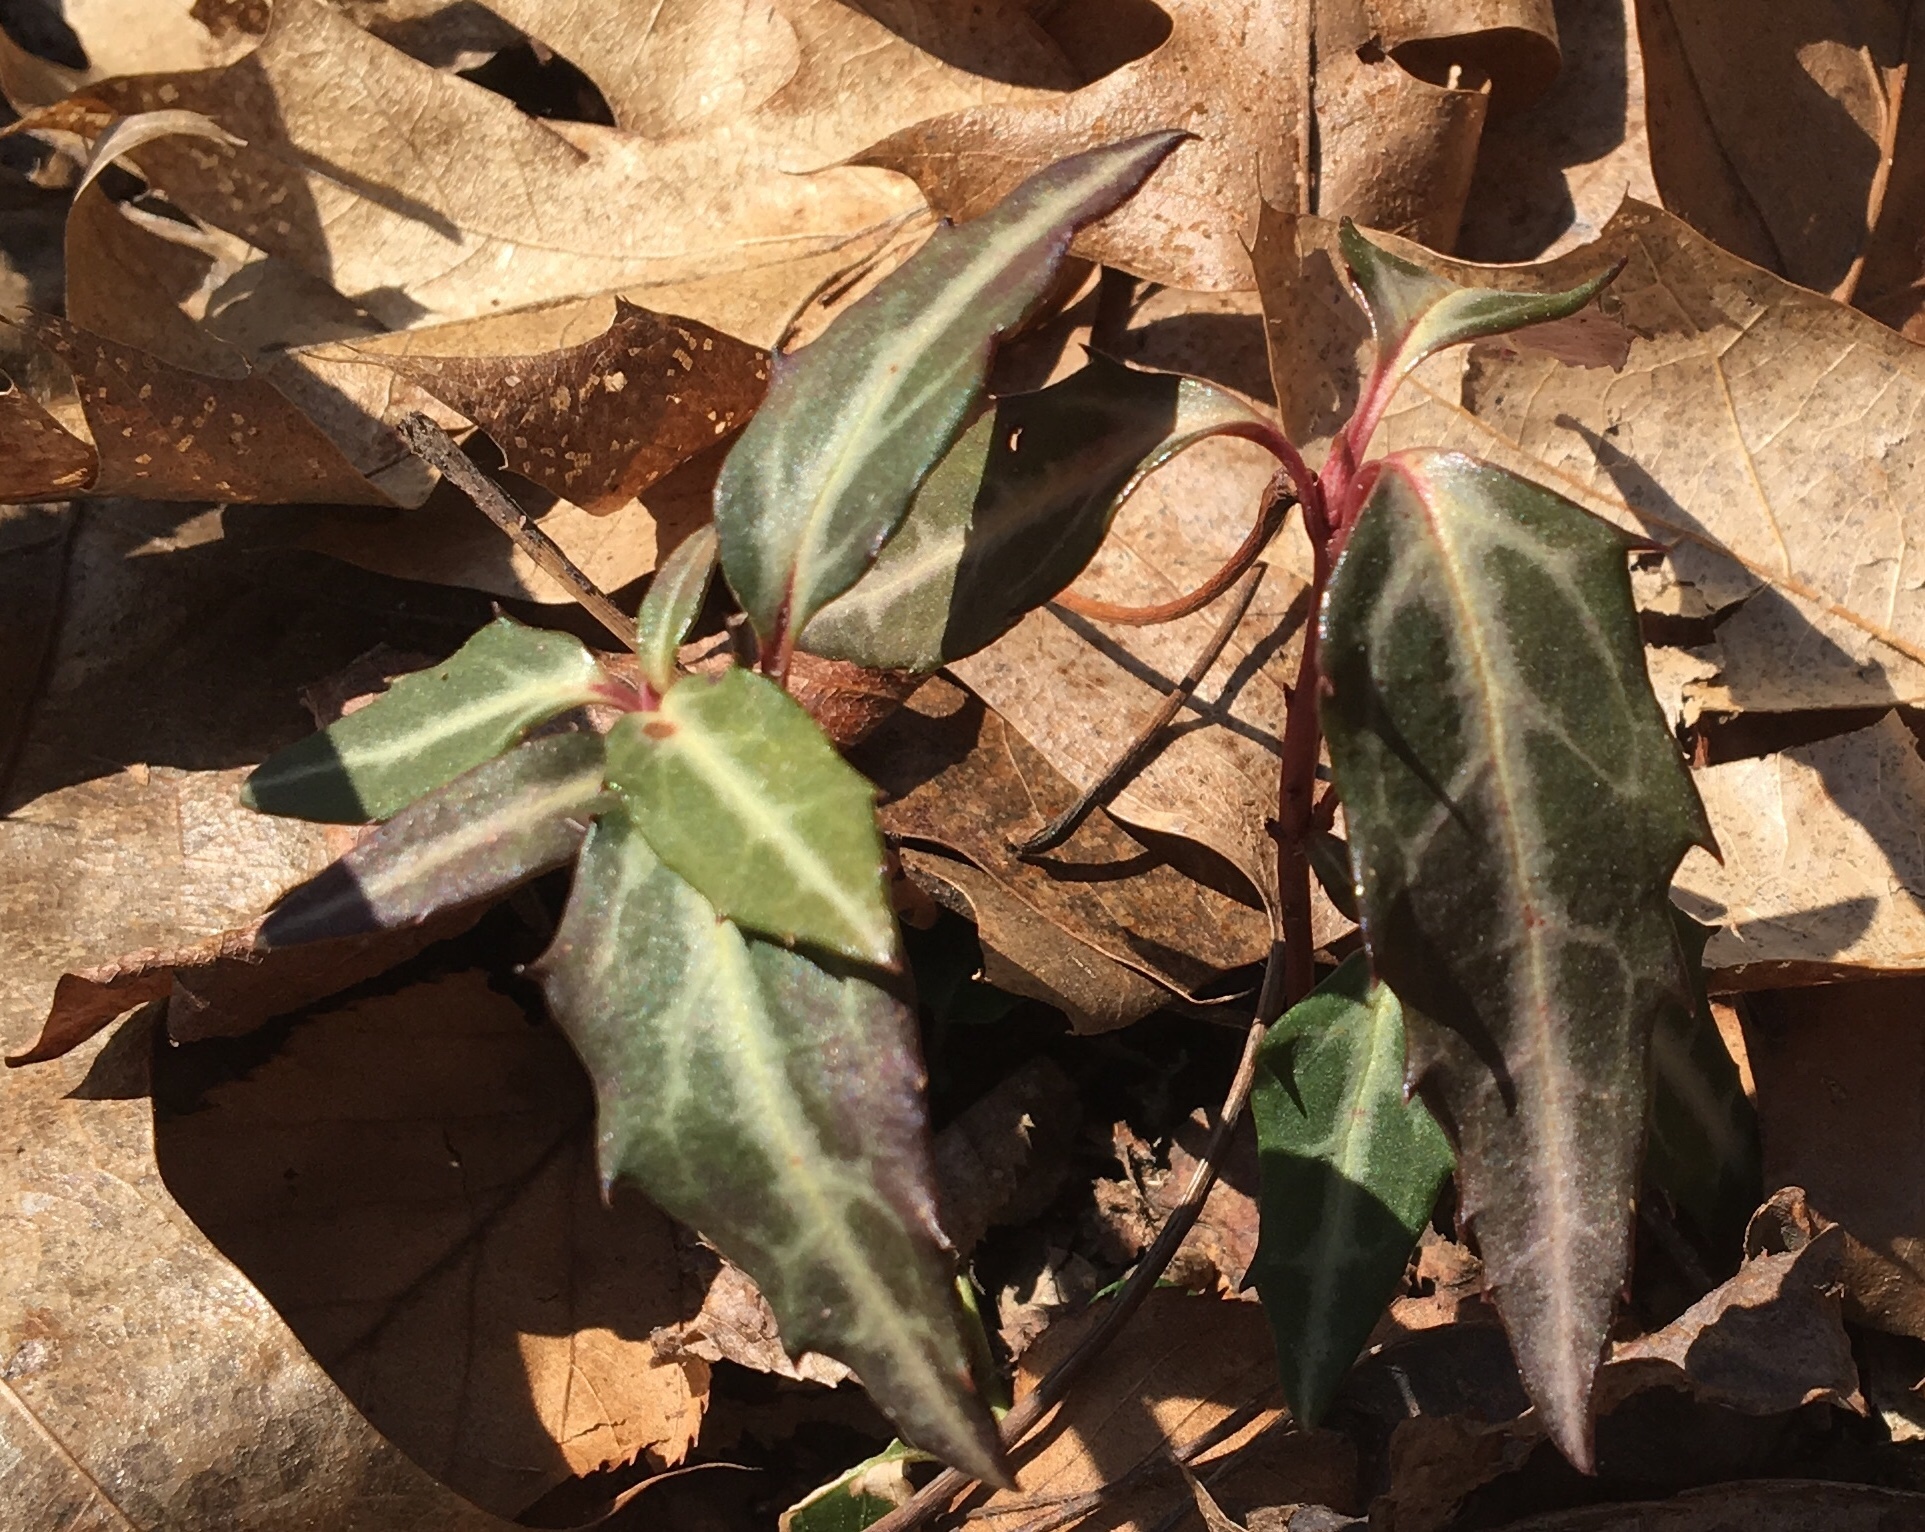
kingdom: Plantae
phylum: Tracheophyta
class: Magnoliopsida
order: Ericales
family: Ericaceae
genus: Chimaphila
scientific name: Chimaphila maculata
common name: Spotted pipsissewa
